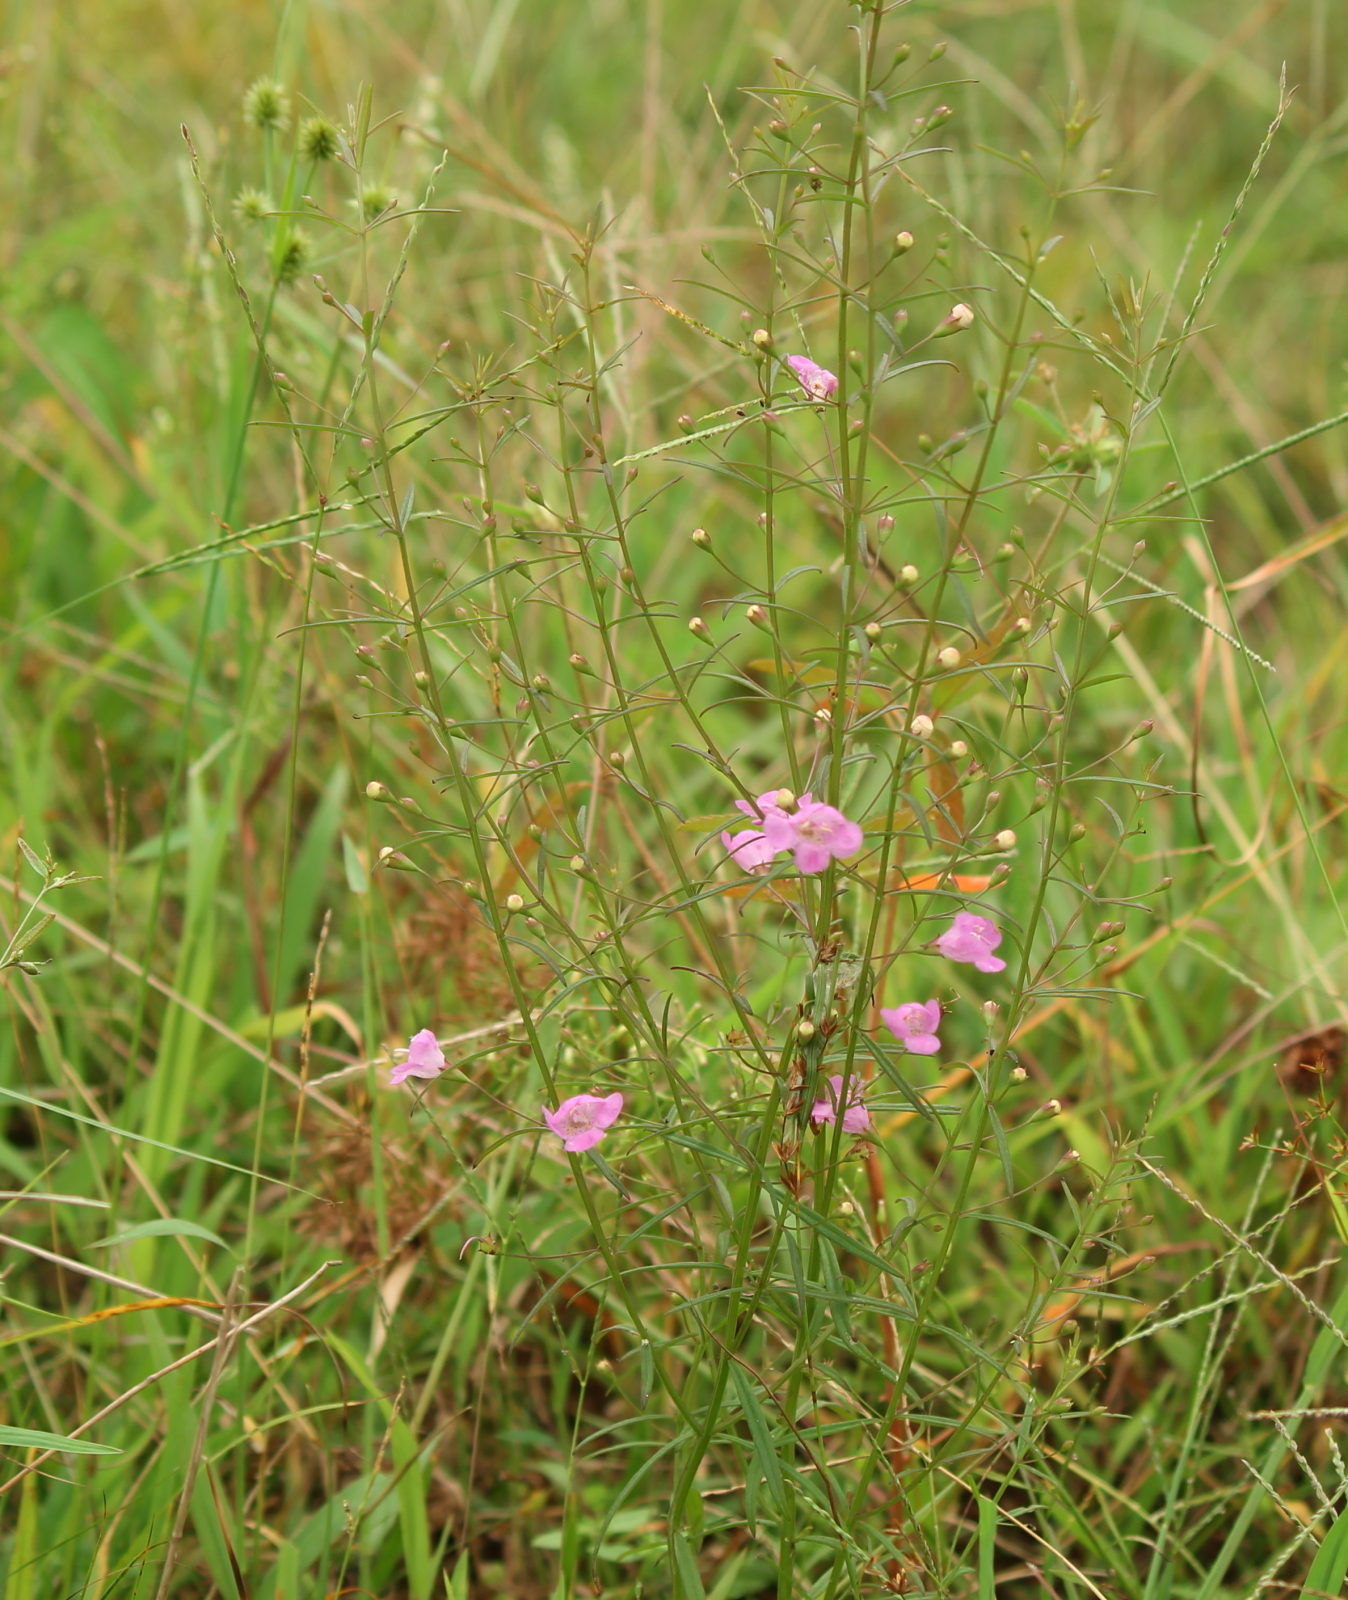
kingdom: Plantae
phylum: Tracheophyta
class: Magnoliopsida
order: Lamiales
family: Orobanchaceae
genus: Agalinis
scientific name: Agalinis tenuifolia
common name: Slender agalinis
